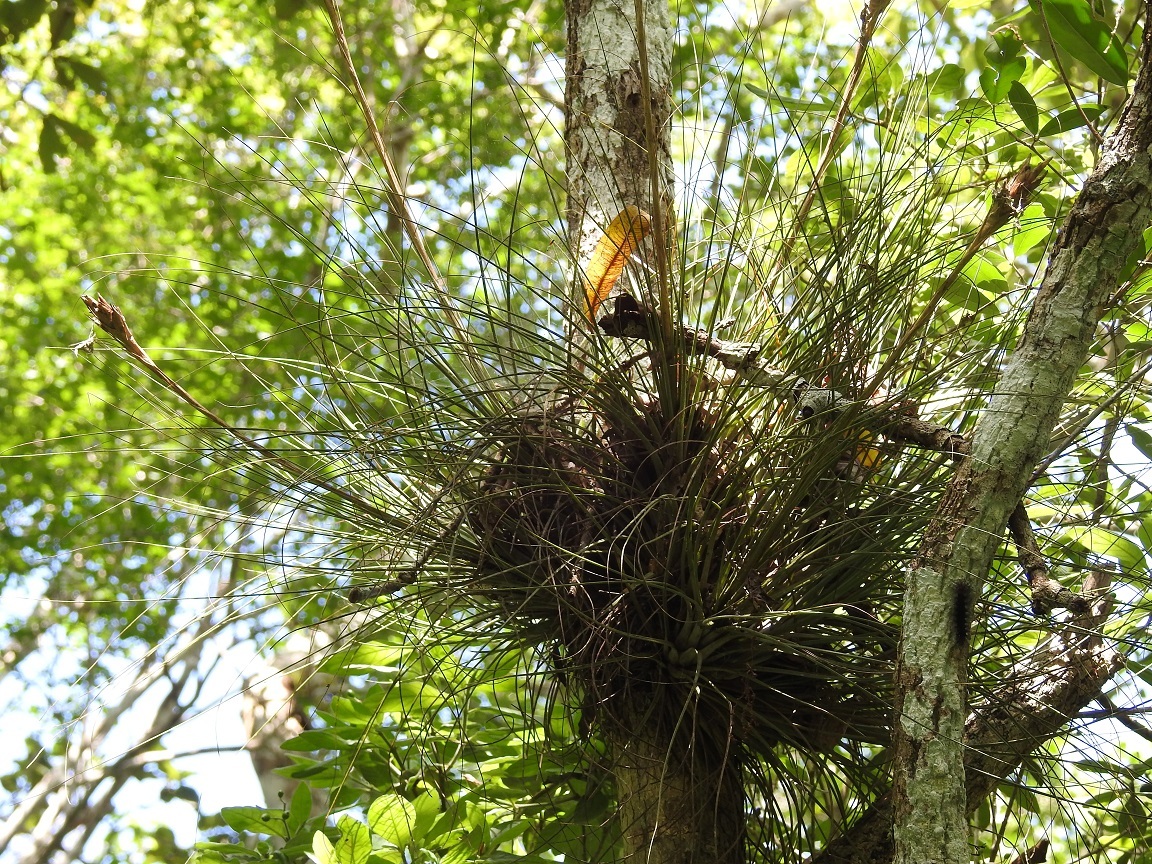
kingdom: Plantae
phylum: Tracheophyta
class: Liliopsida
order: Poales
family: Bromeliaceae
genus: Tillandsia
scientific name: Tillandsia juncea
